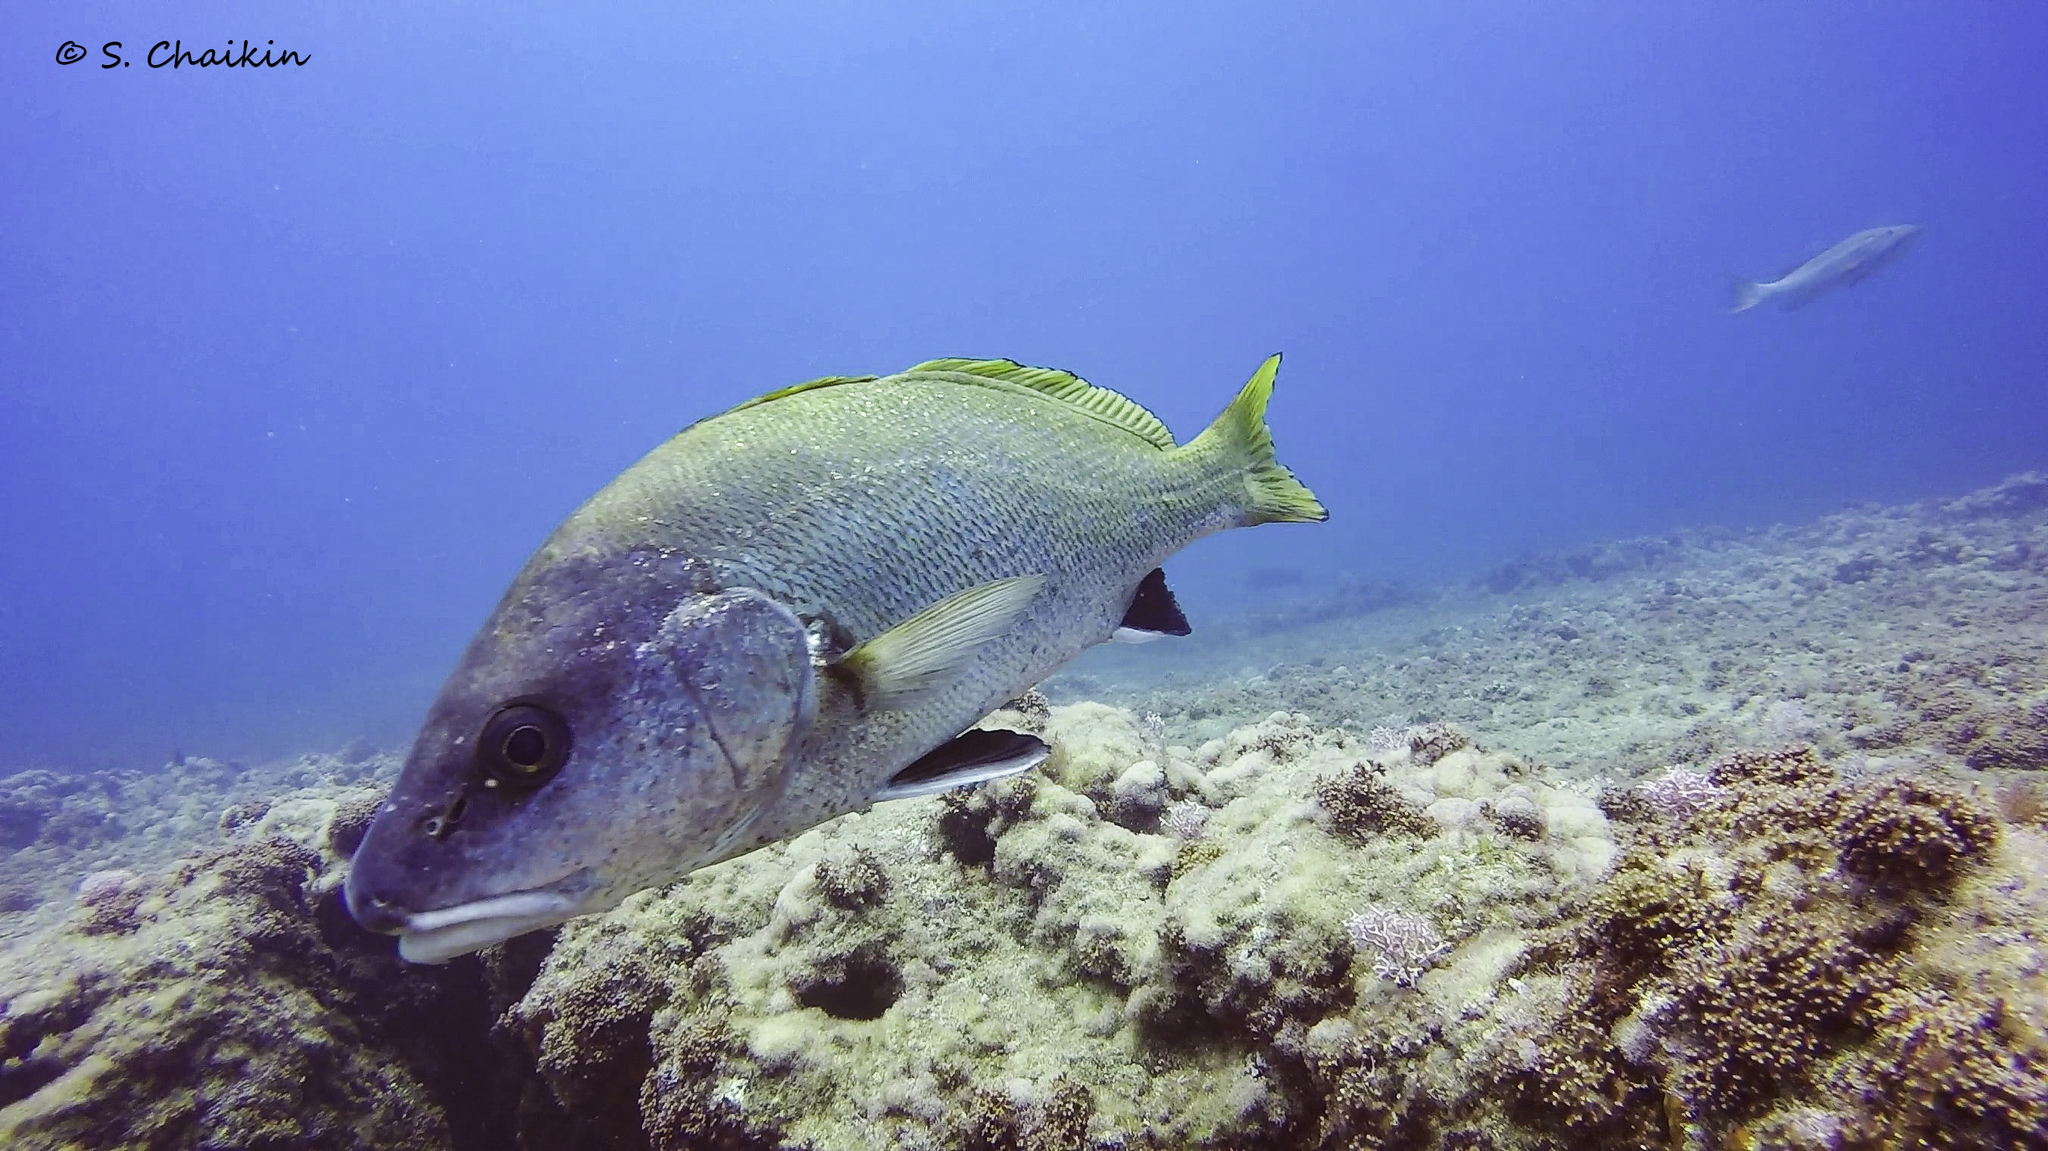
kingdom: Animalia
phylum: Chordata
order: Perciformes
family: Sciaenidae
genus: Sciaena
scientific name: Sciaena umbra
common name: Brown meagre
